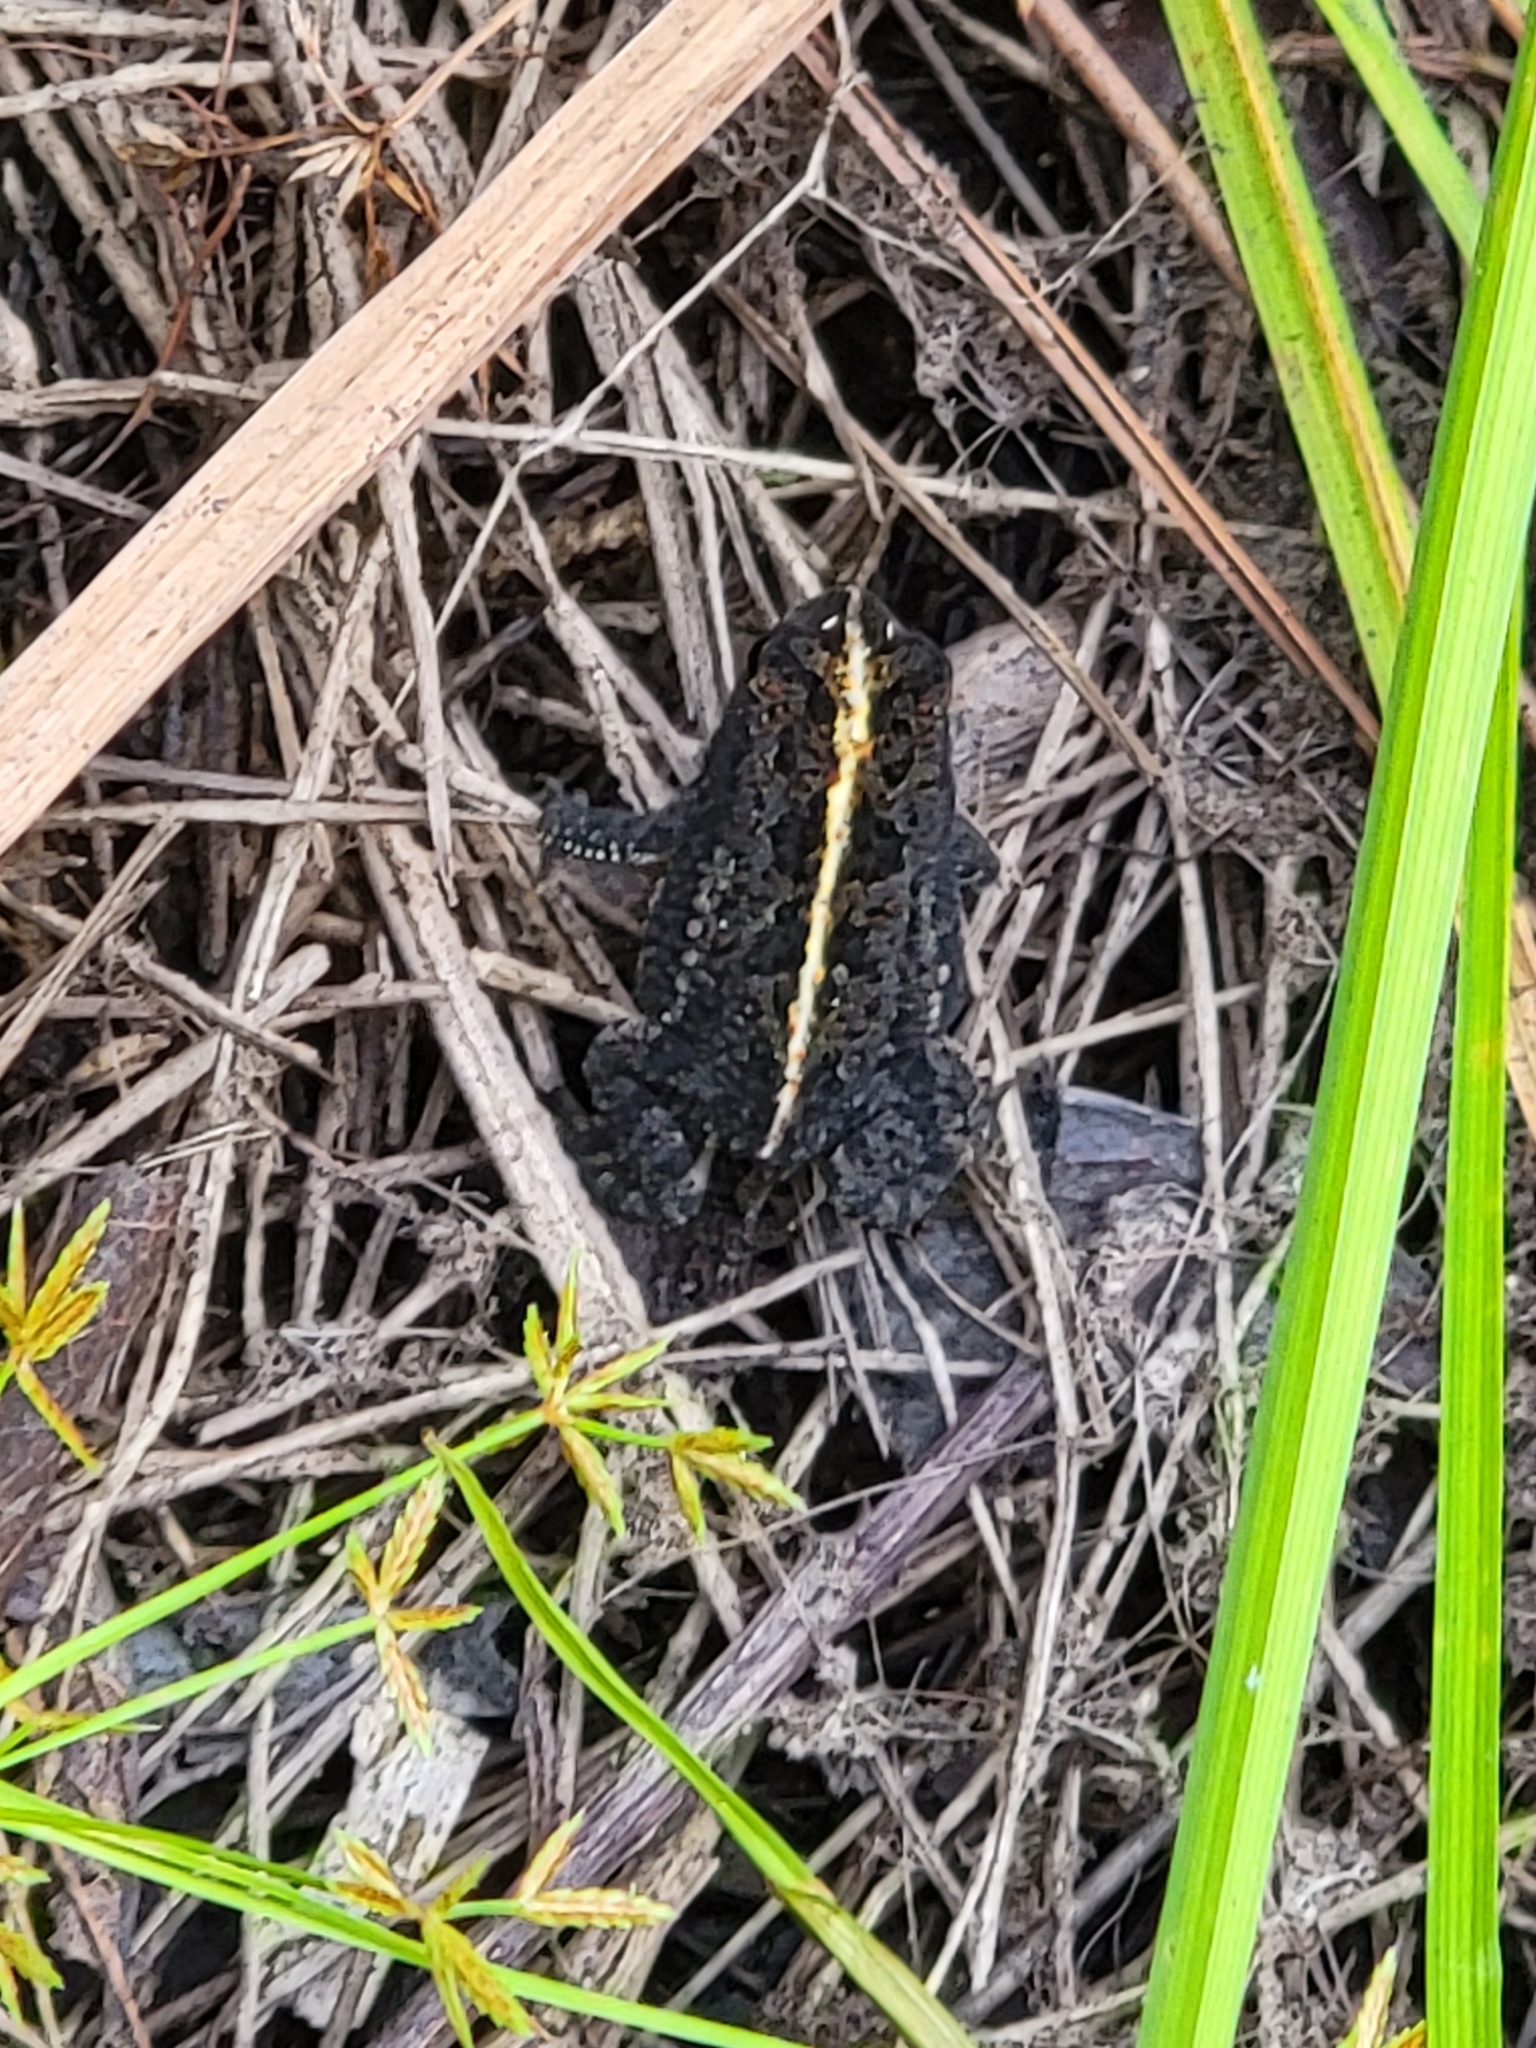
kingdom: Animalia
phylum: Chordata
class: Amphibia
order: Anura
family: Bufonidae
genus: Anaxyrus
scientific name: Anaxyrus quercicus
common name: Oak toad
